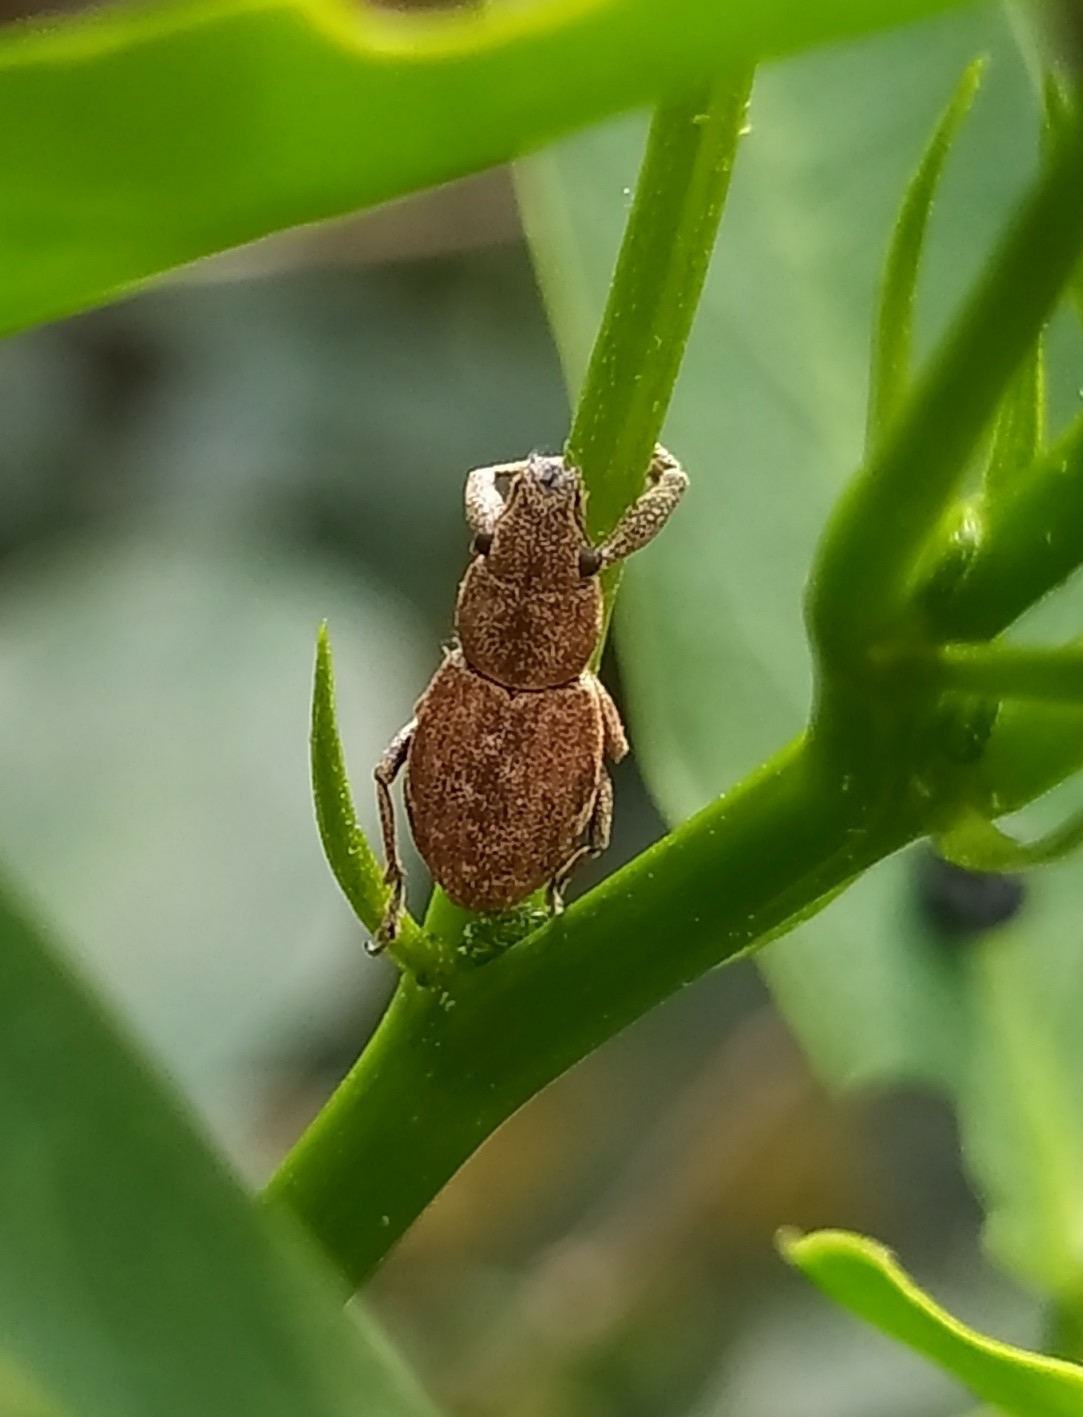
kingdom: Animalia
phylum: Arthropoda
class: Insecta
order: Coleoptera
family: Curculionidae
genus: Naupactus
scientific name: Naupactus cervinus
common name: Fuller rose beetle
